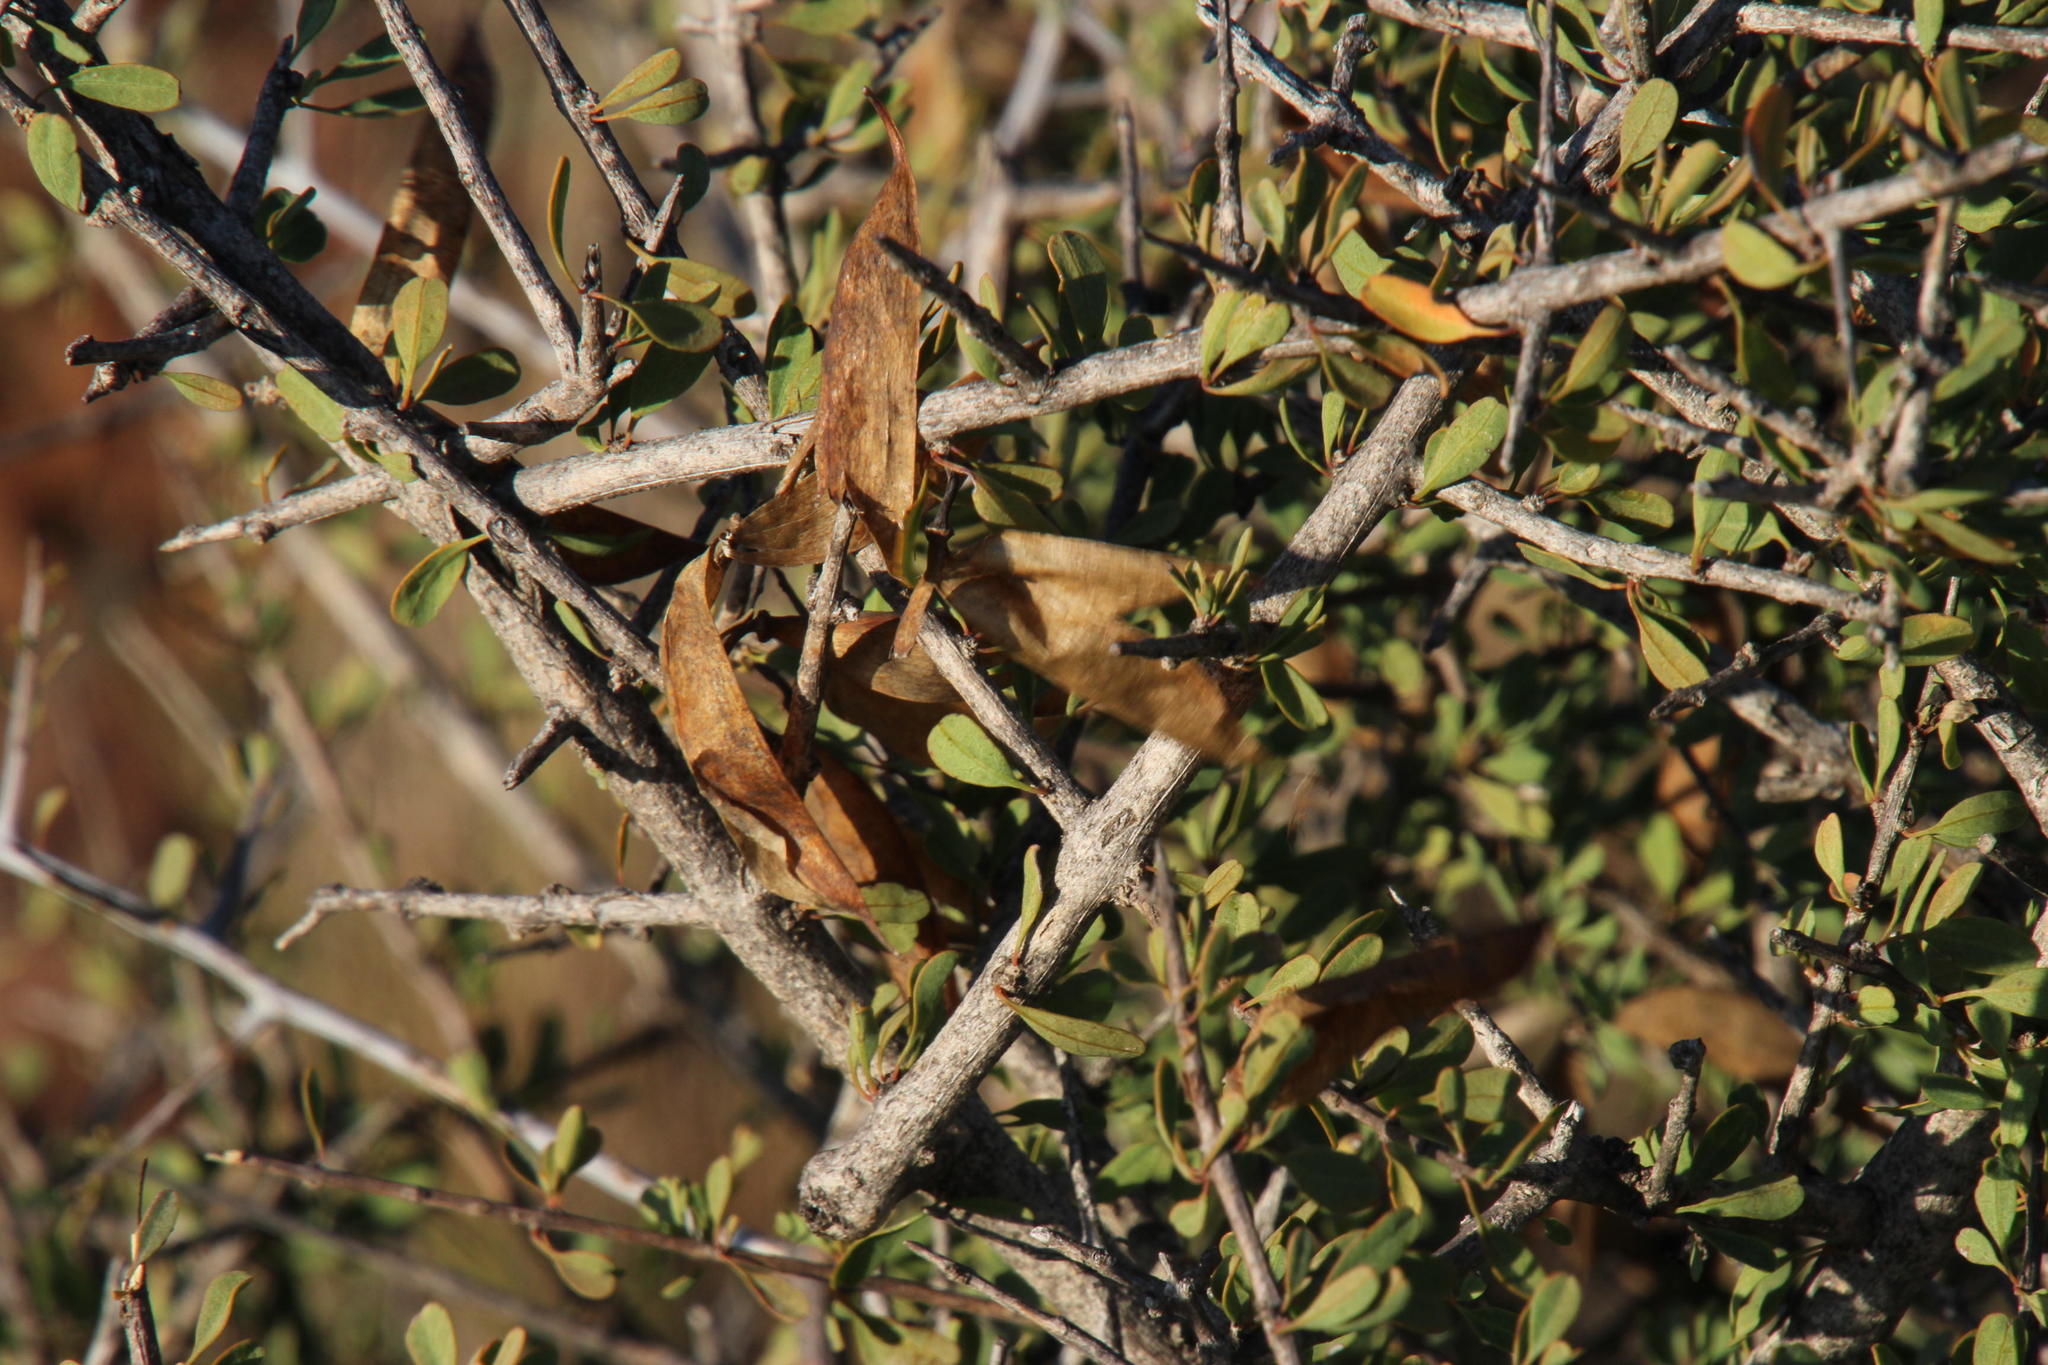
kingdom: Plantae
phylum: Tracheophyta
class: Magnoliopsida
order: Lamiales
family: Bignoniaceae
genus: Rhigozum
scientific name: Rhigozum obovatum
